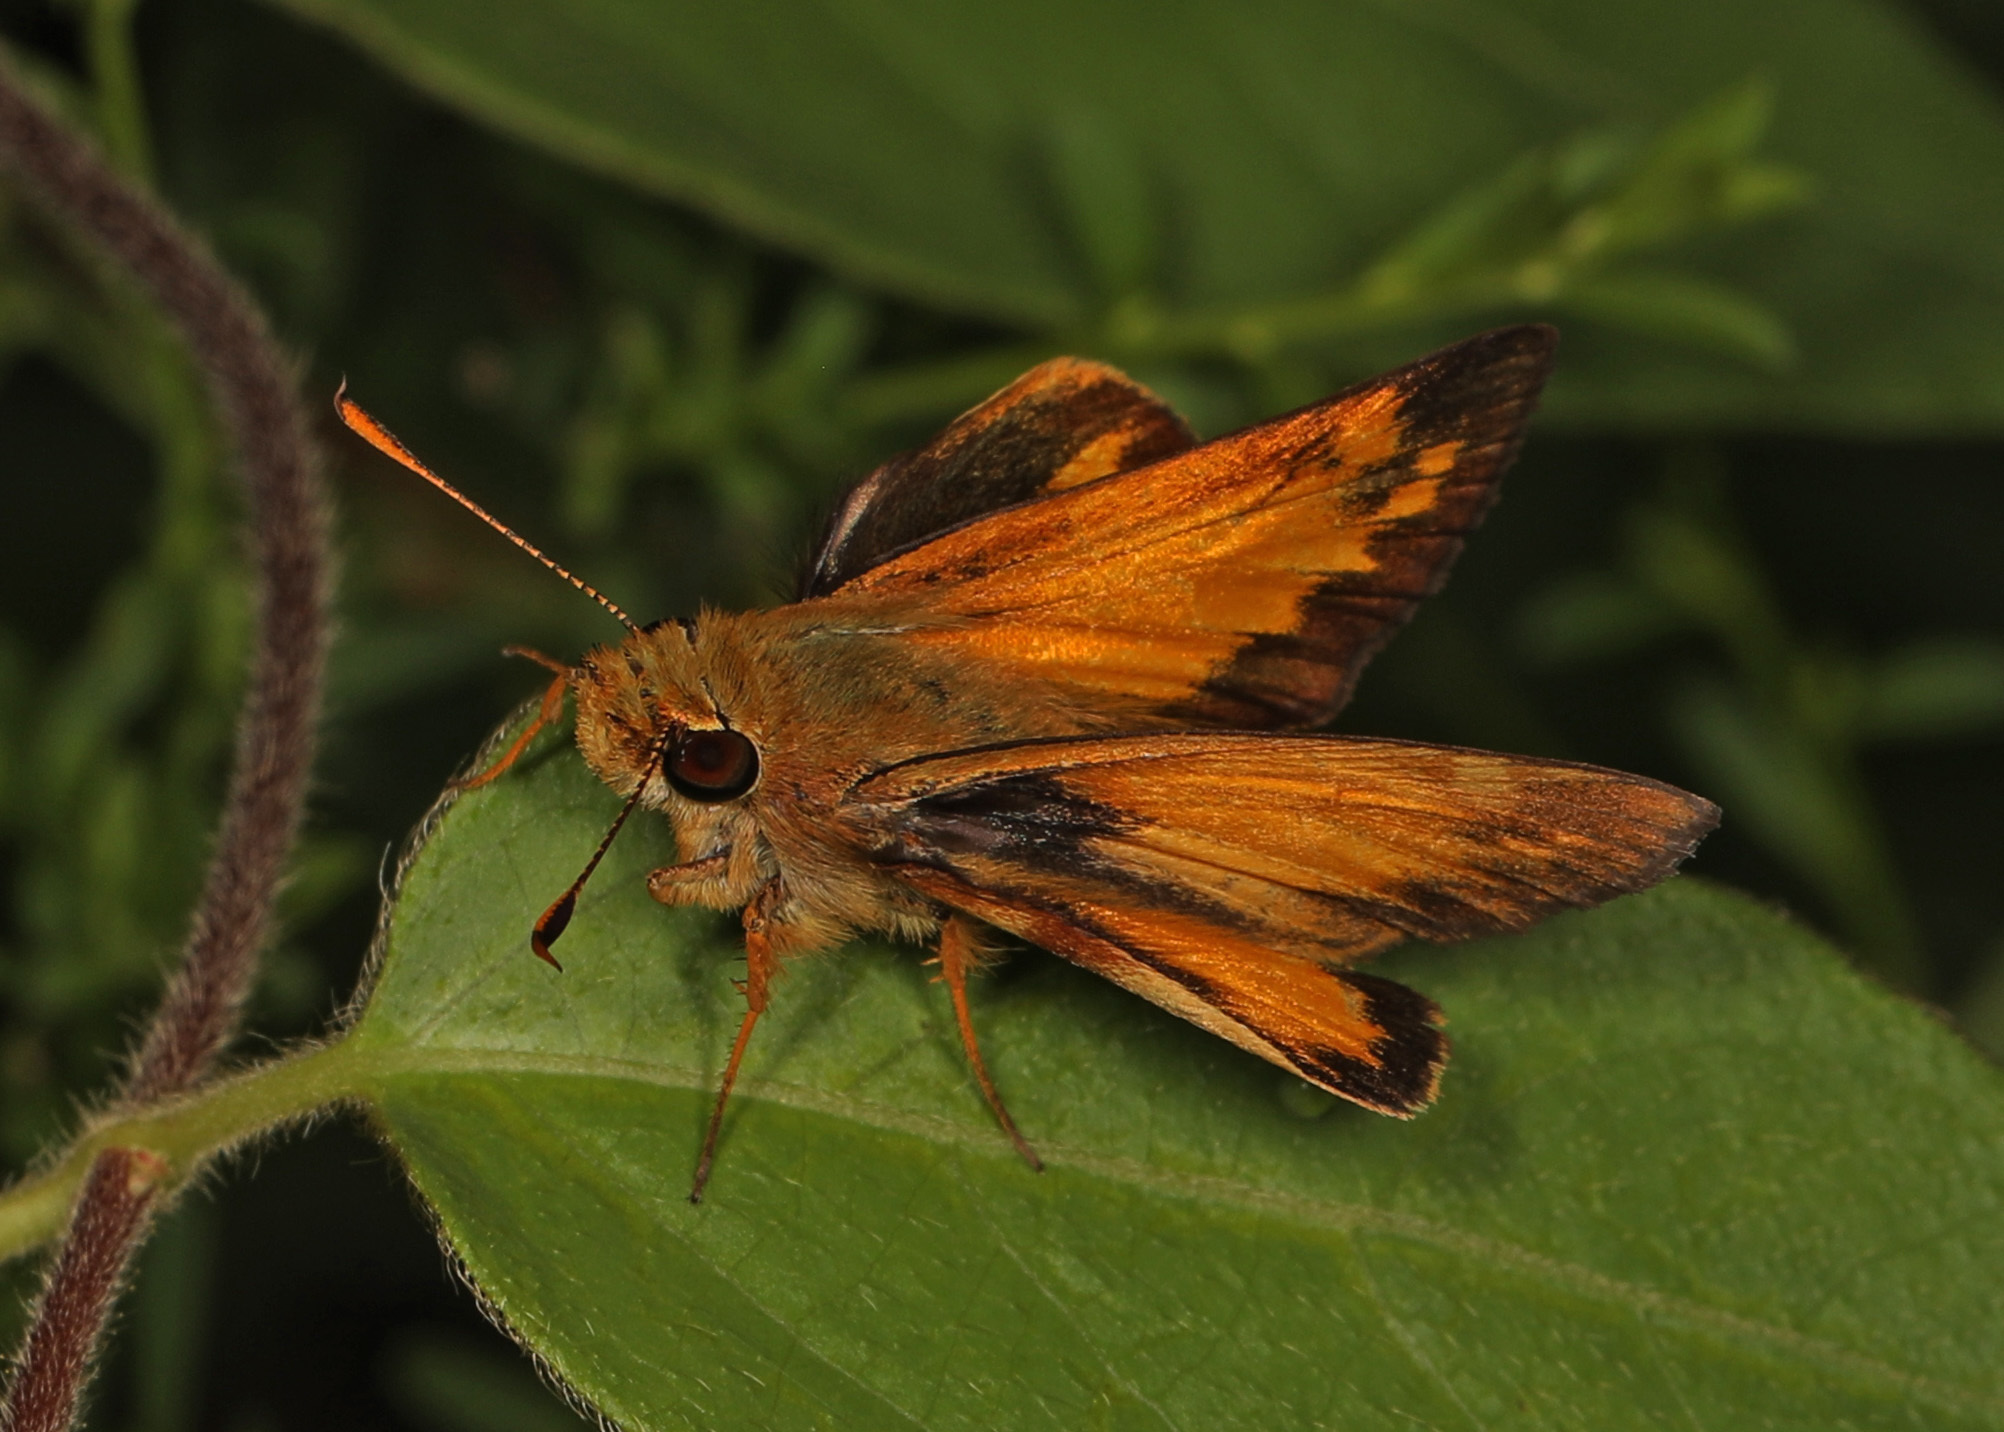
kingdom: Animalia
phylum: Arthropoda
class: Insecta
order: Lepidoptera
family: Hesperiidae
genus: Lon
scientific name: Lon zabulon
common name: Zabulon skipper
